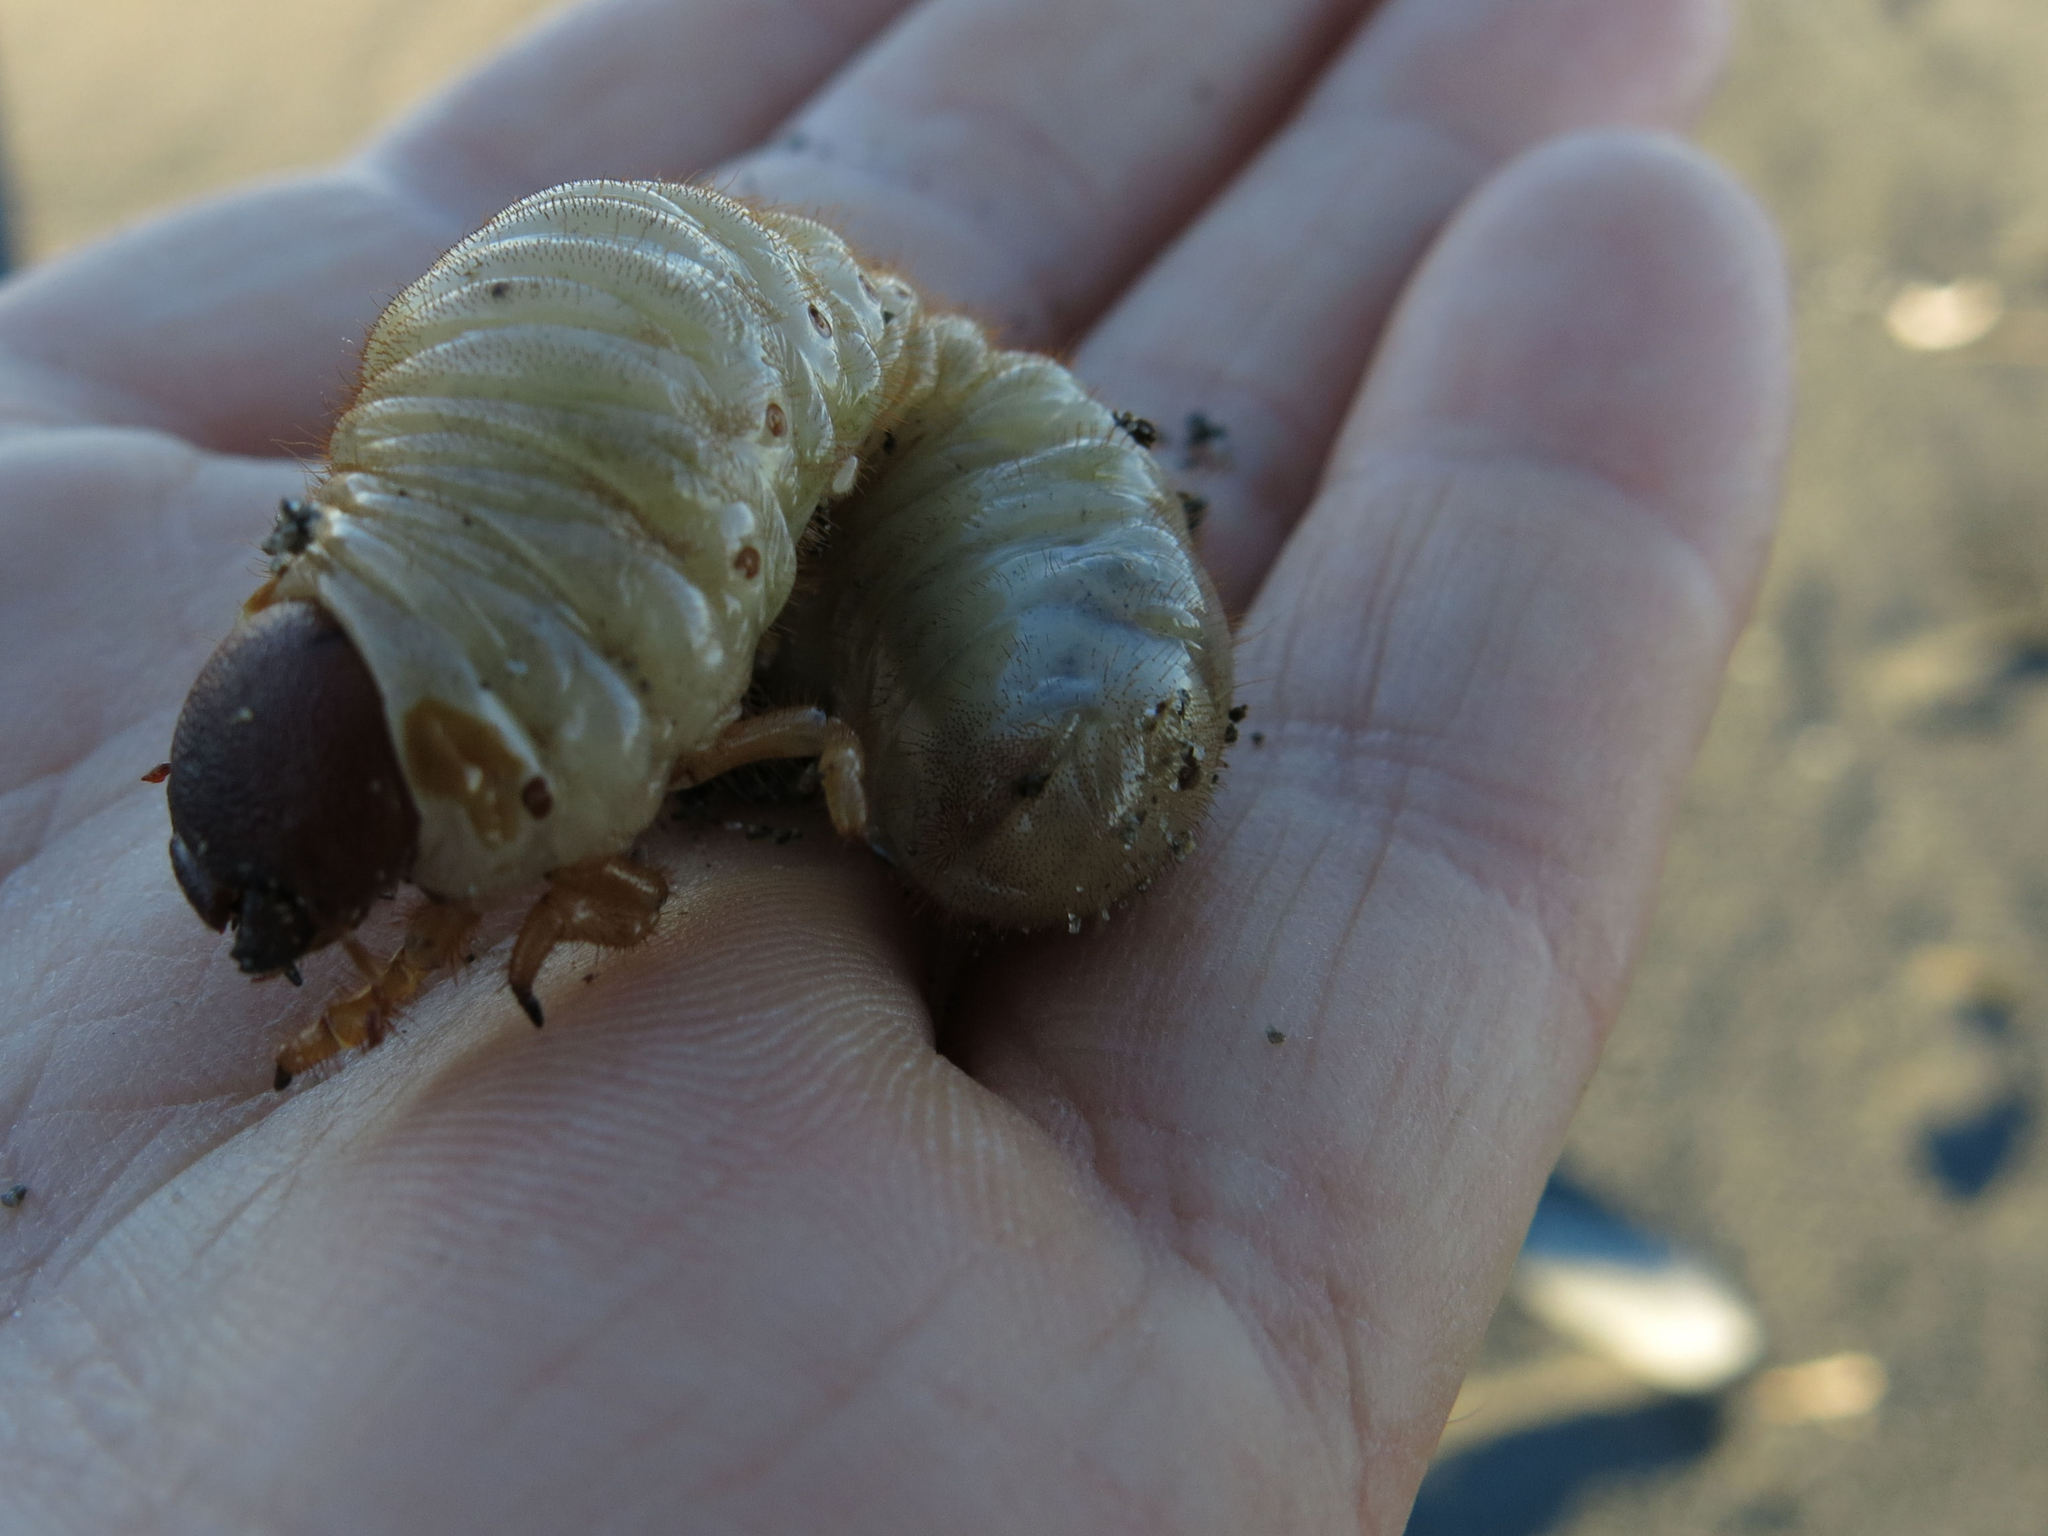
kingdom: Animalia
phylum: Arthropoda
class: Insecta
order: Coleoptera
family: Scarabaeidae
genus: Pericoptus
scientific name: Pericoptus truncatus
